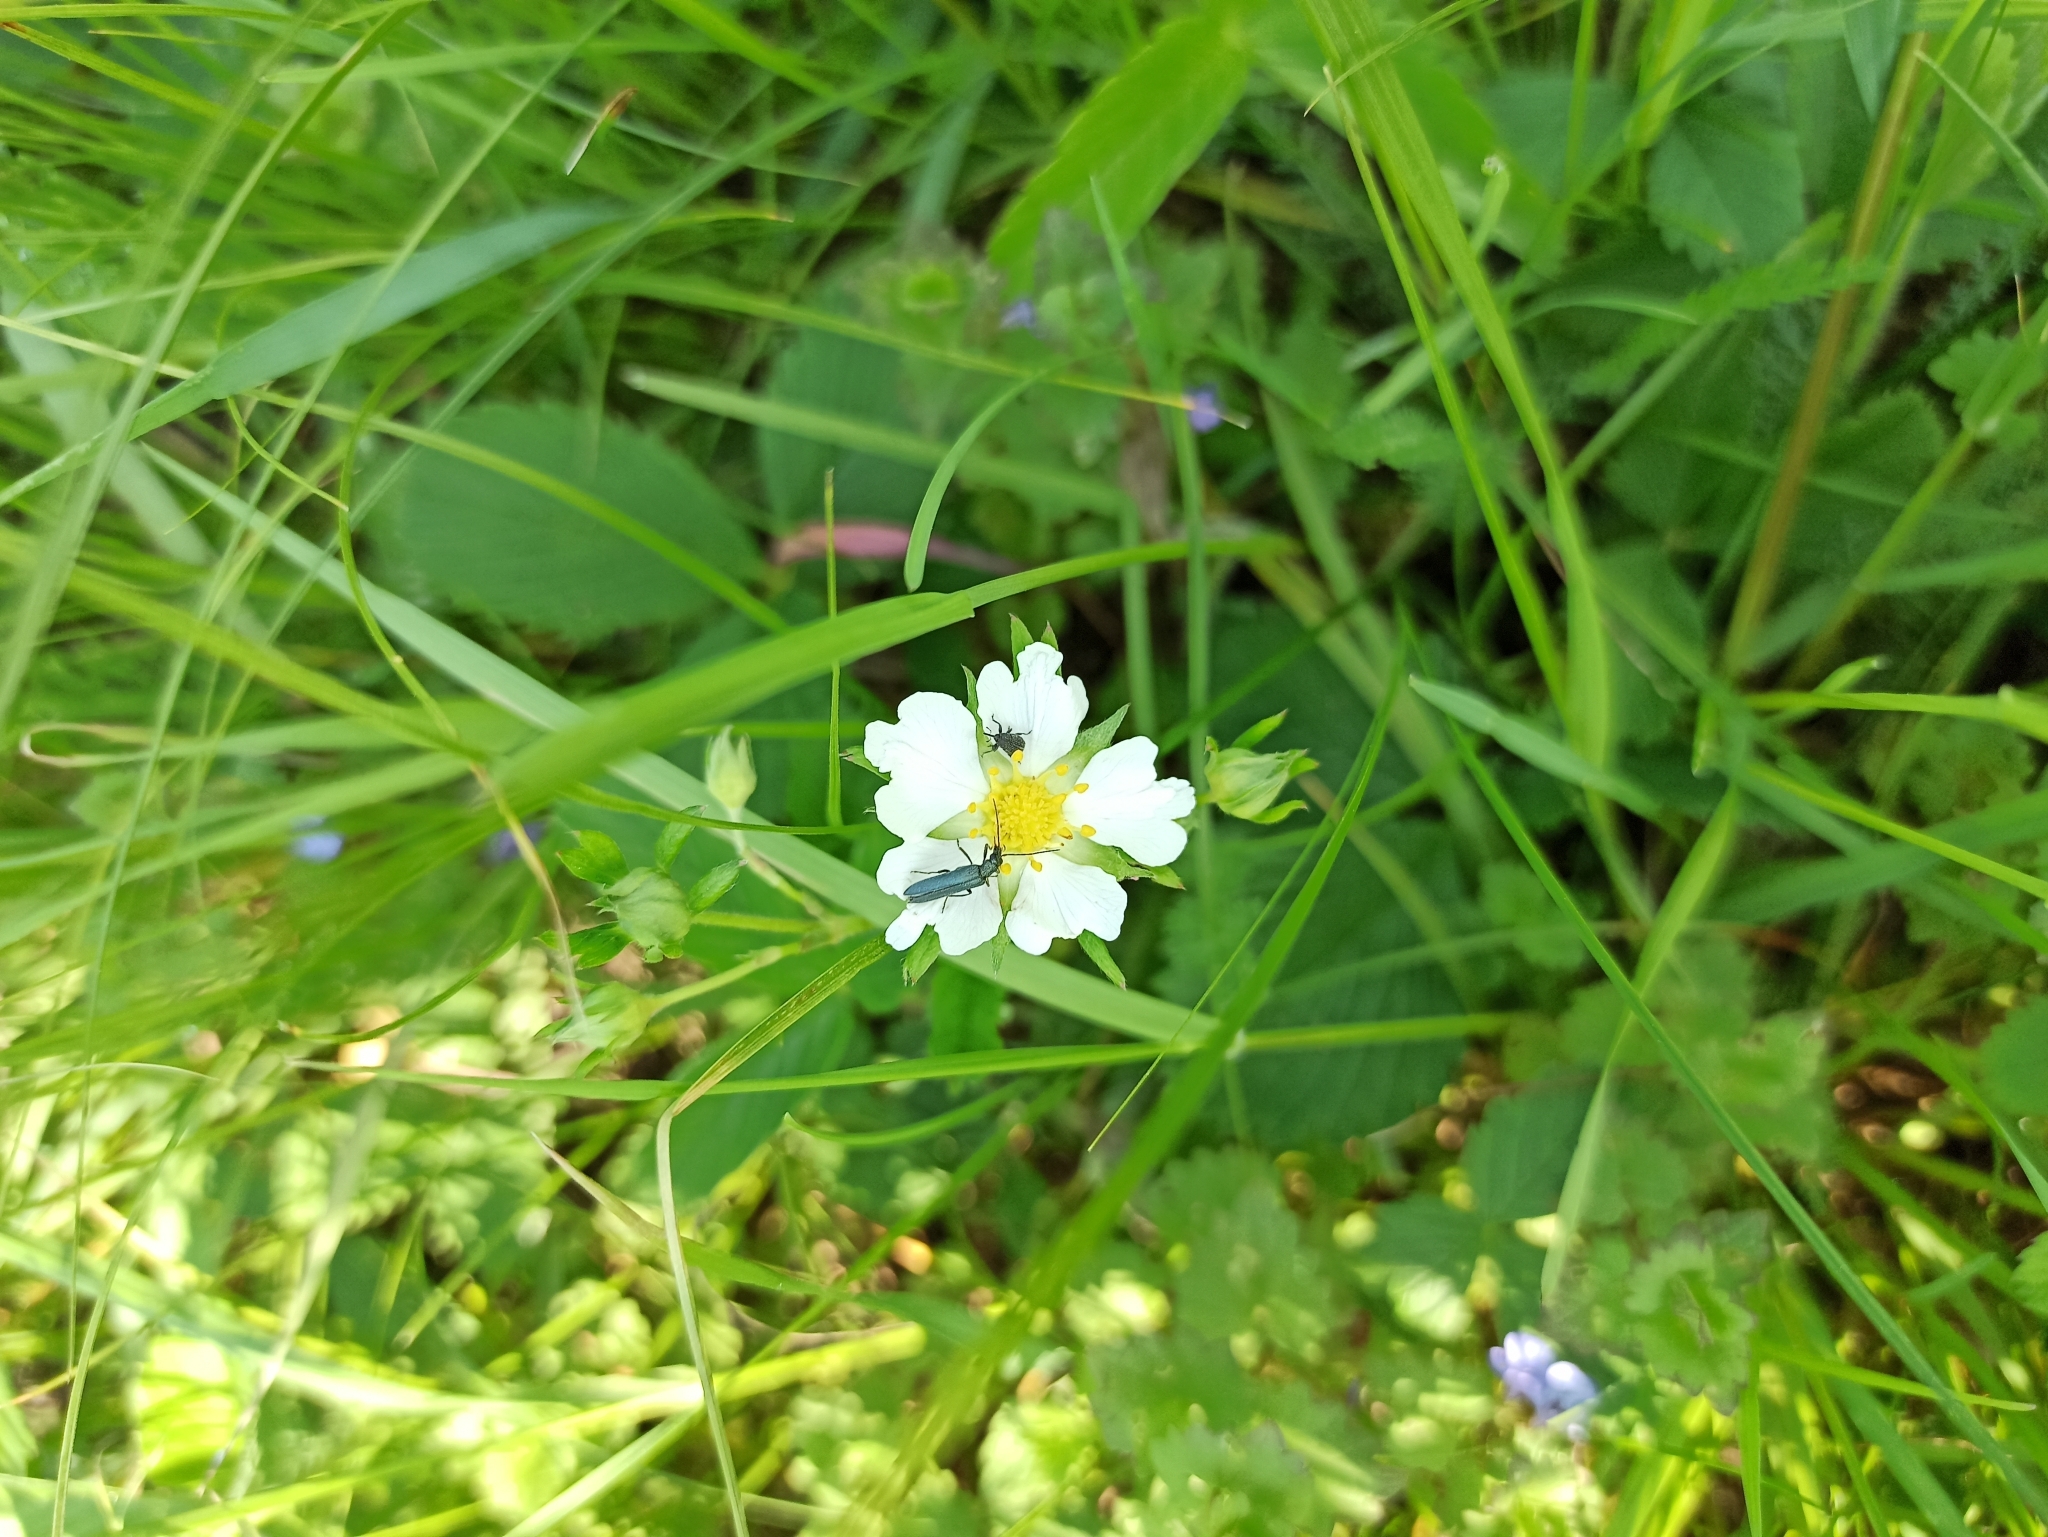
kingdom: Plantae
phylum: Tracheophyta
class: Magnoliopsida
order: Rosales
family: Rosaceae
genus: Fragaria
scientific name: Fragaria viridis
